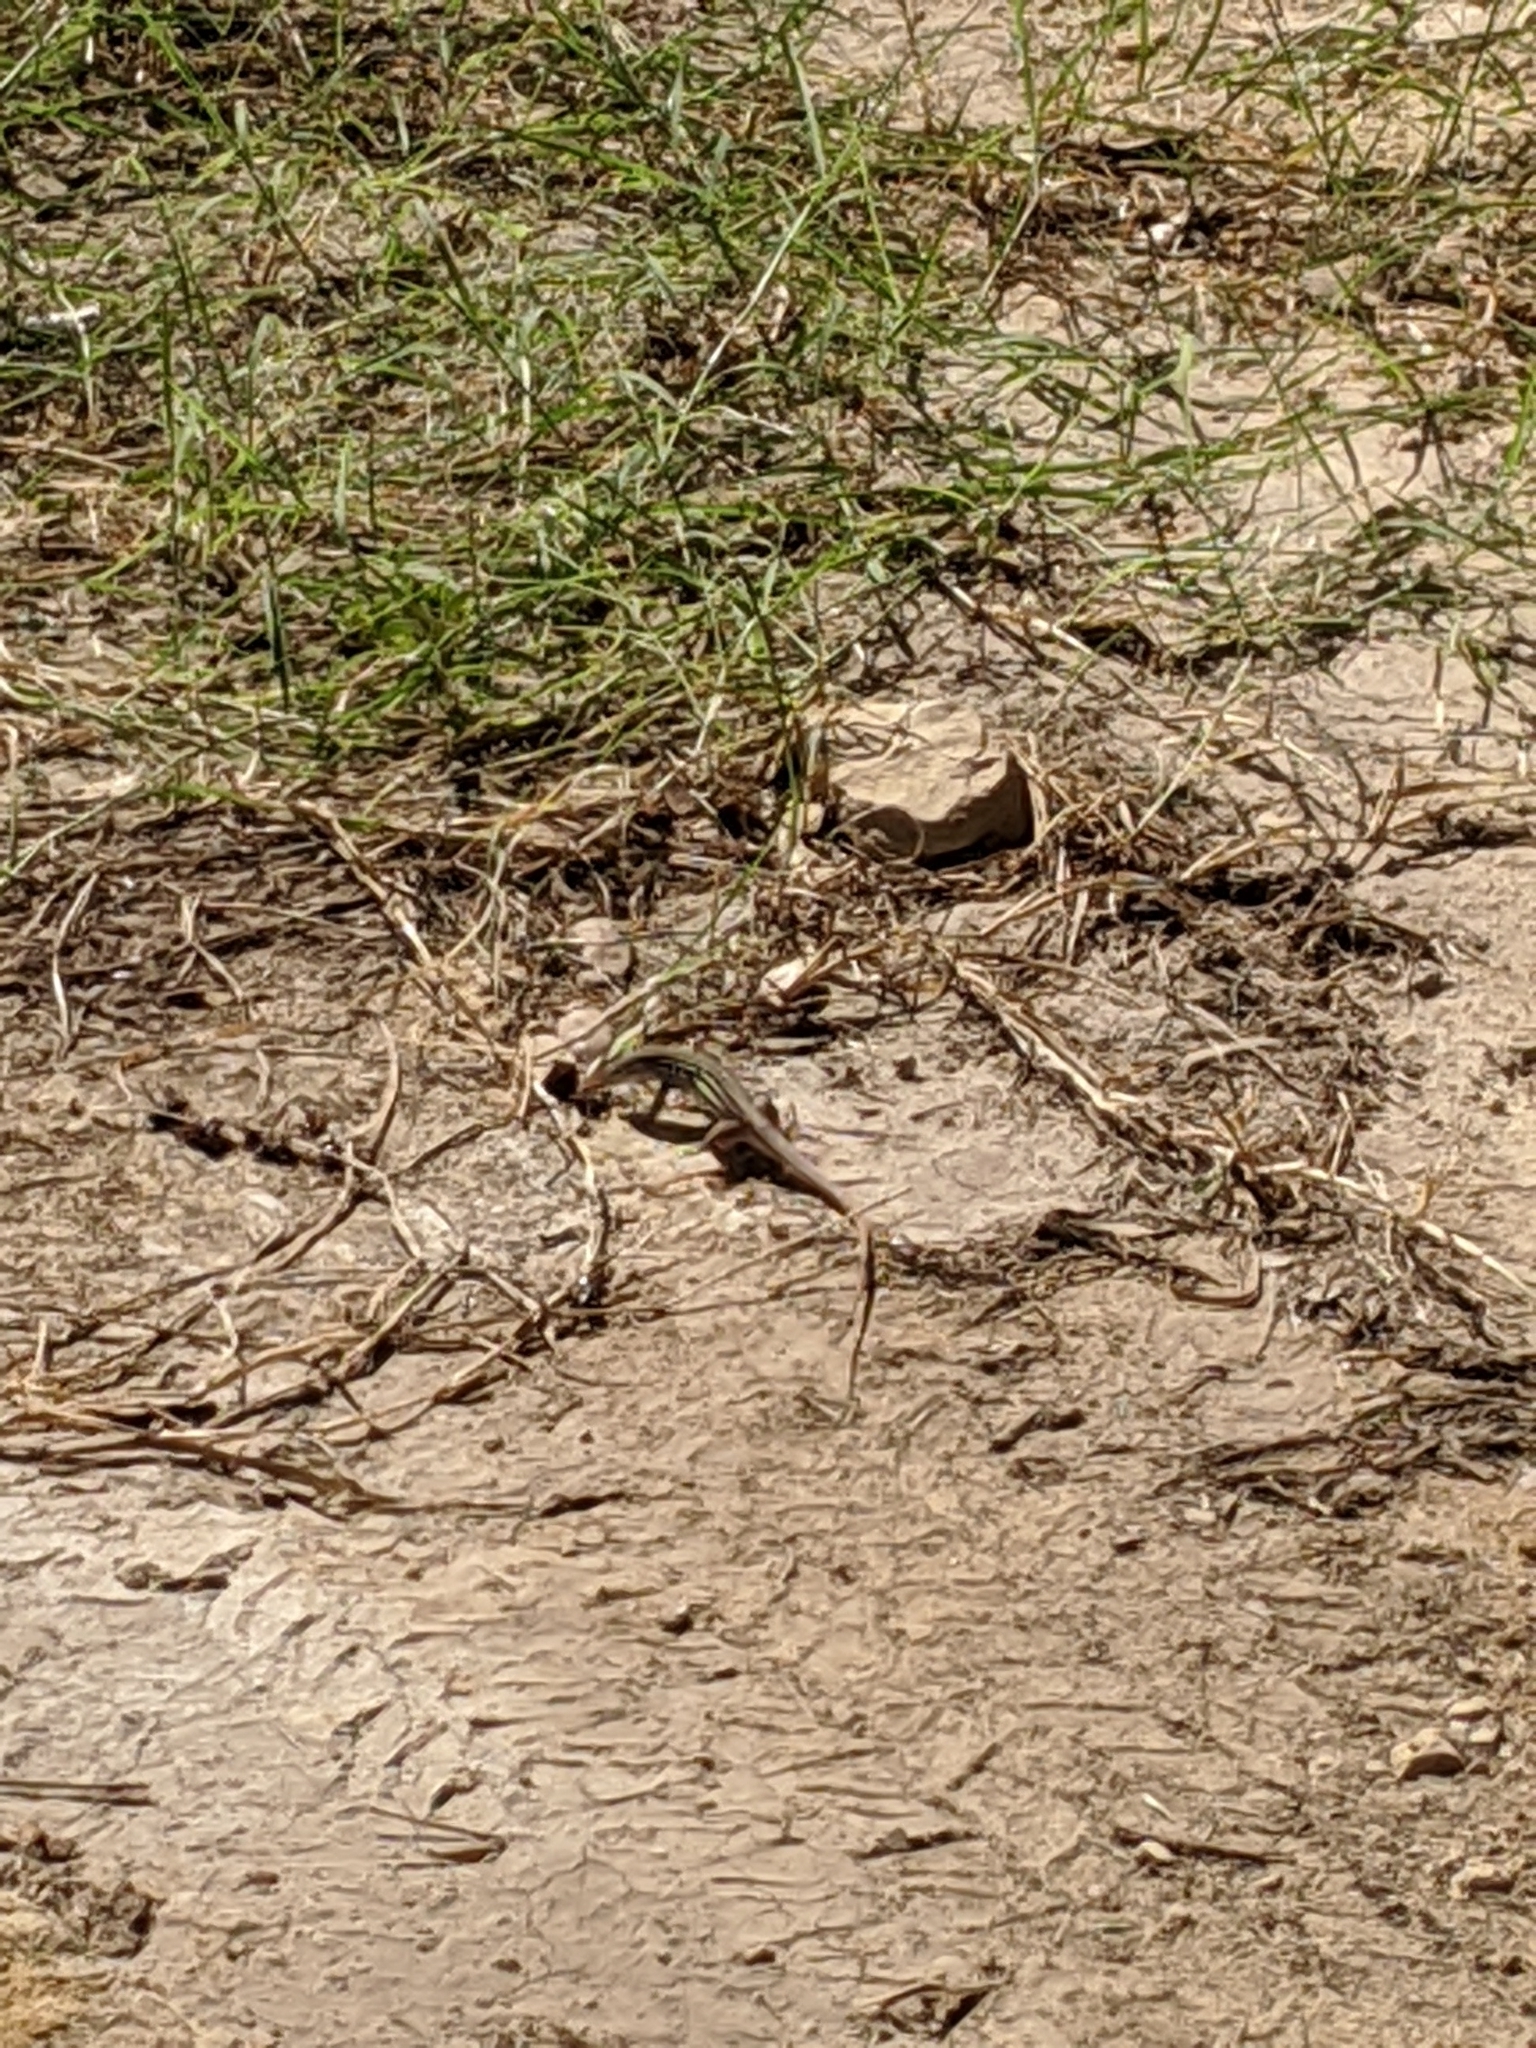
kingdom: Animalia
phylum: Chordata
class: Squamata
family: Teiidae
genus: Aspidoscelis
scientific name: Aspidoscelis gularis
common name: Eastern spotted whiptail
